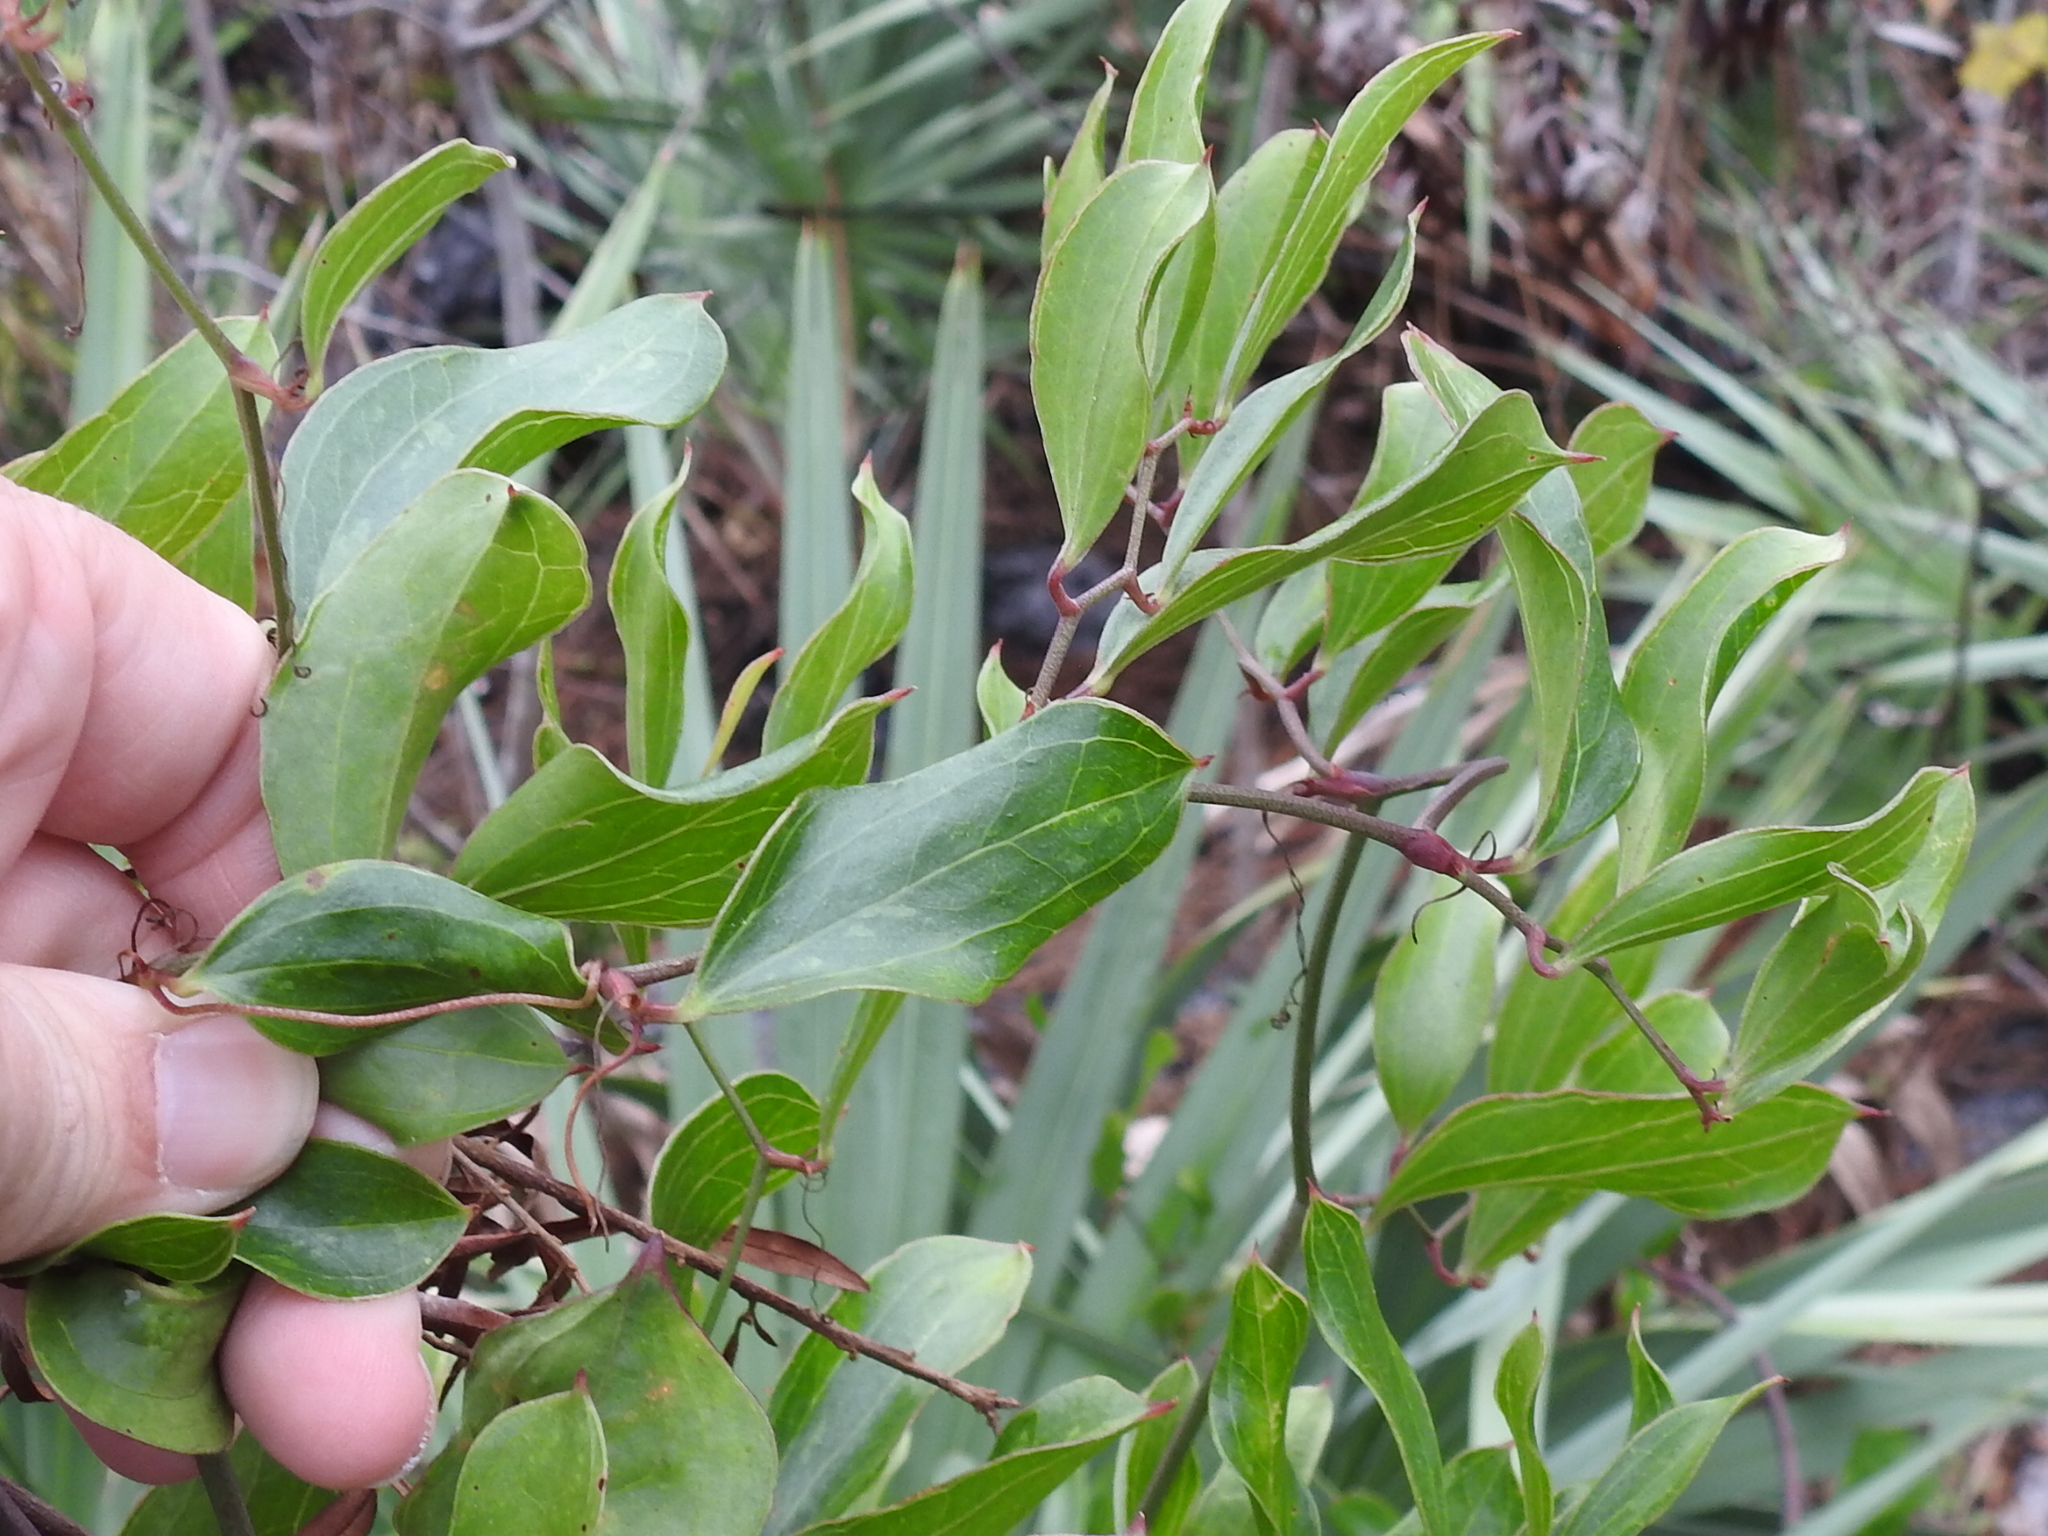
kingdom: Plantae
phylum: Tracheophyta
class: Liliopsida
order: Liliales
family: Smilacaceae
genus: Smilax
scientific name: Smilax auriculata
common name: Wild bamboo
